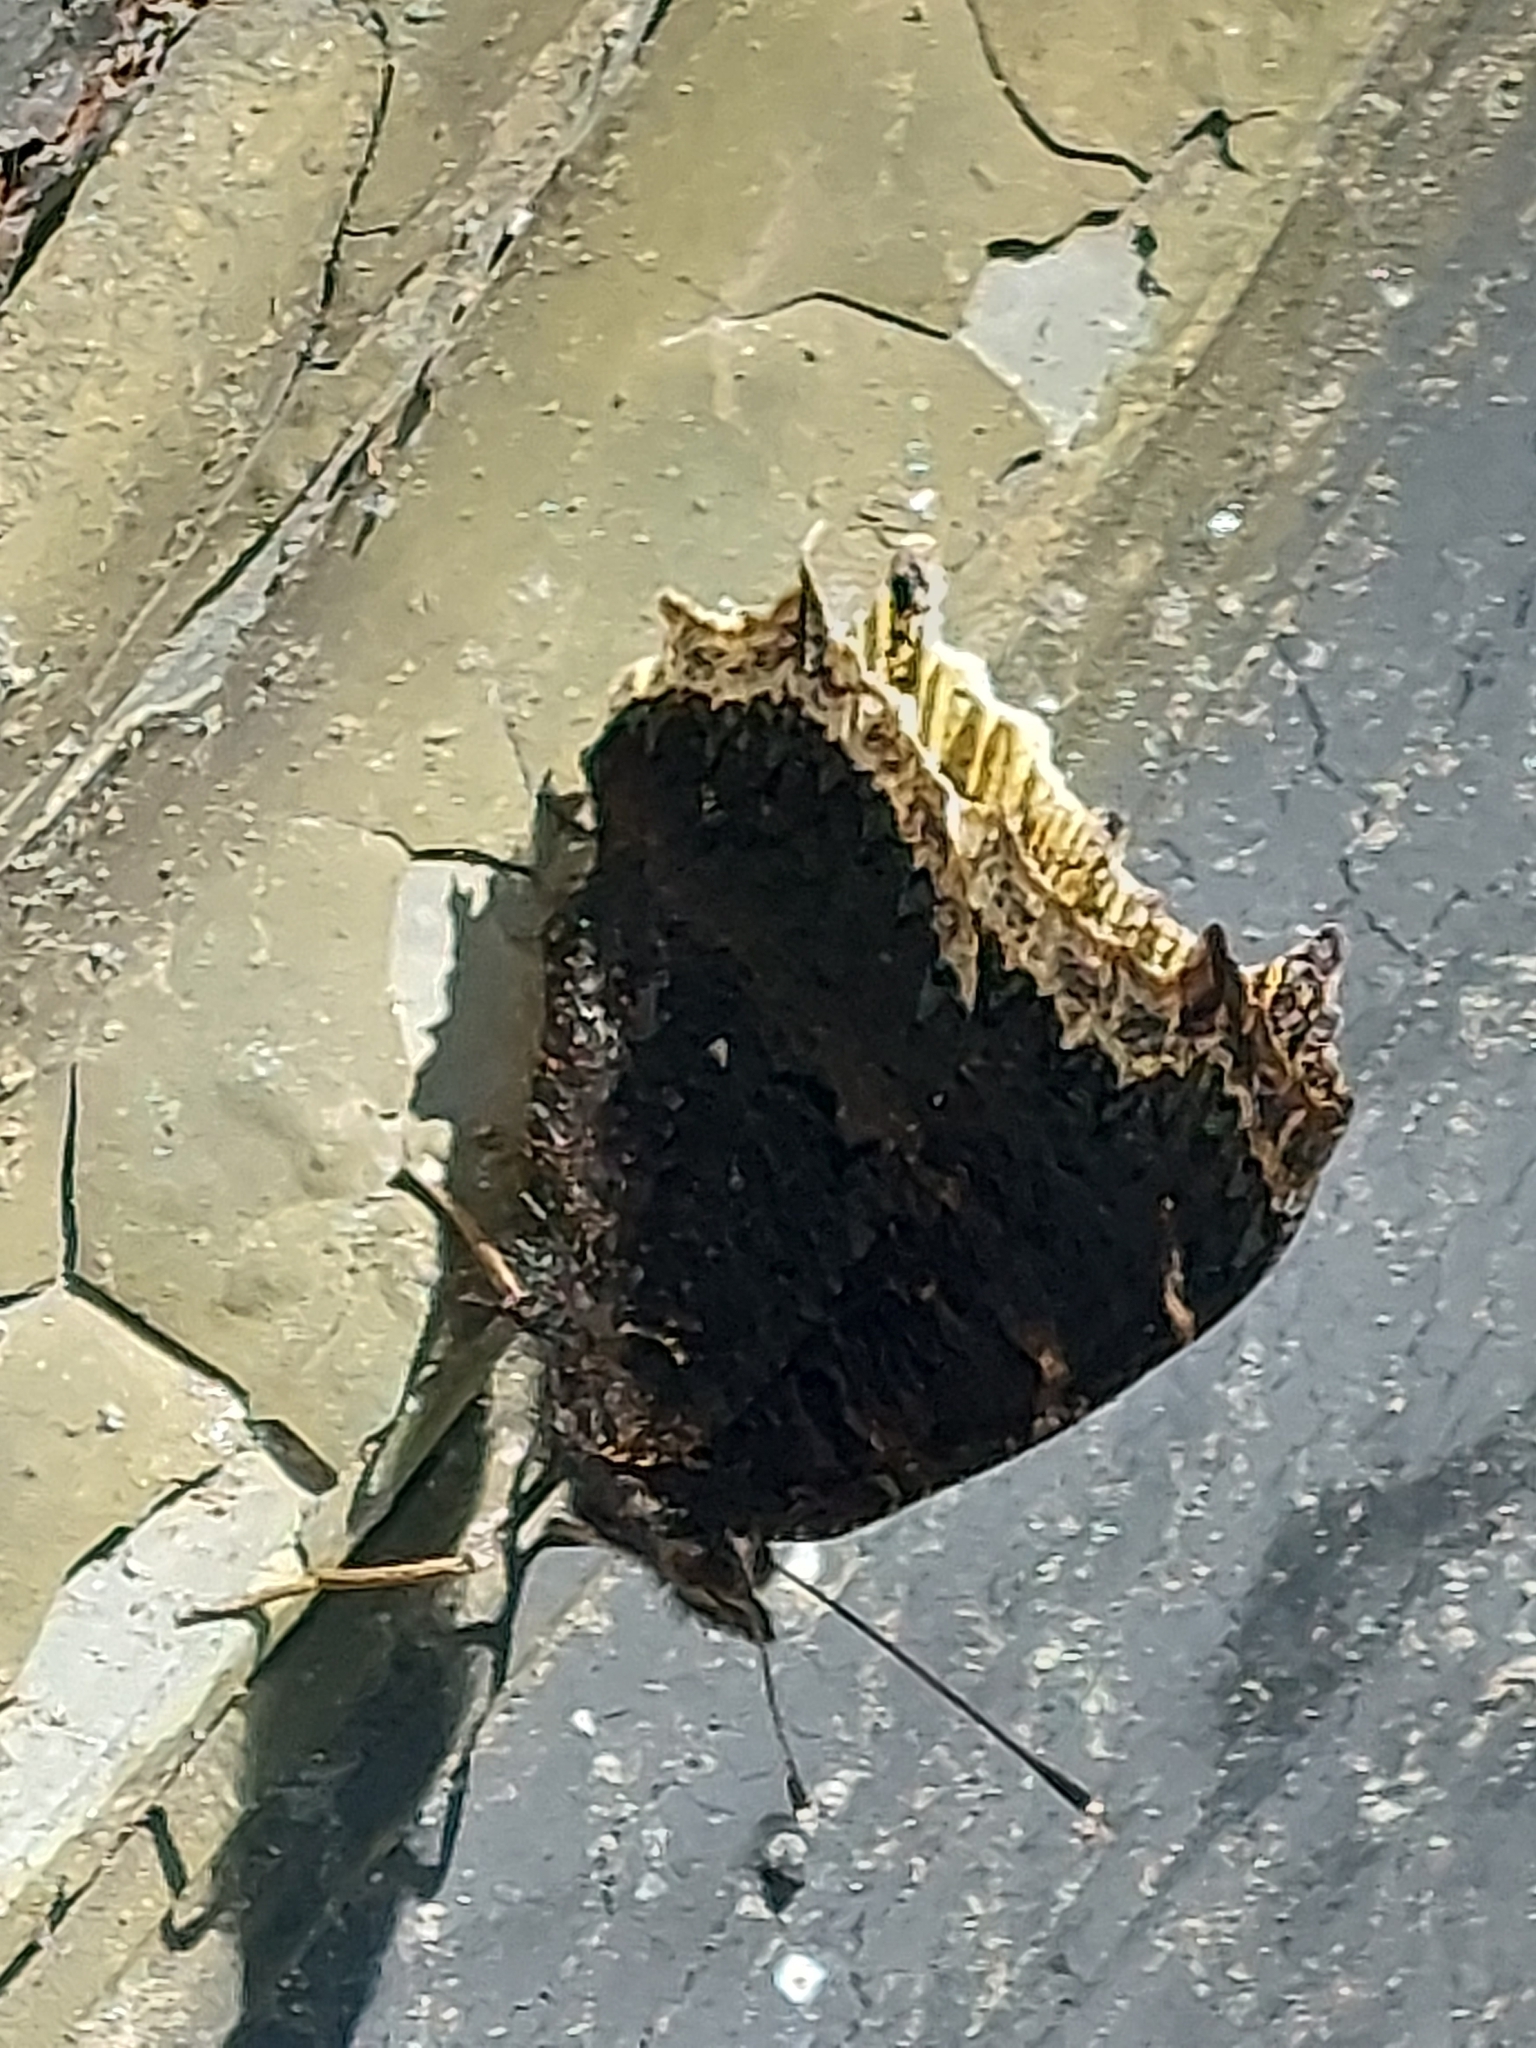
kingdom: Animalia
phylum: Arthropoda
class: Insecta
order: Lepidoptera
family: Nymphalidae
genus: Nymphalis
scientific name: Nymphalis antiopa
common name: Camberwell beauty
